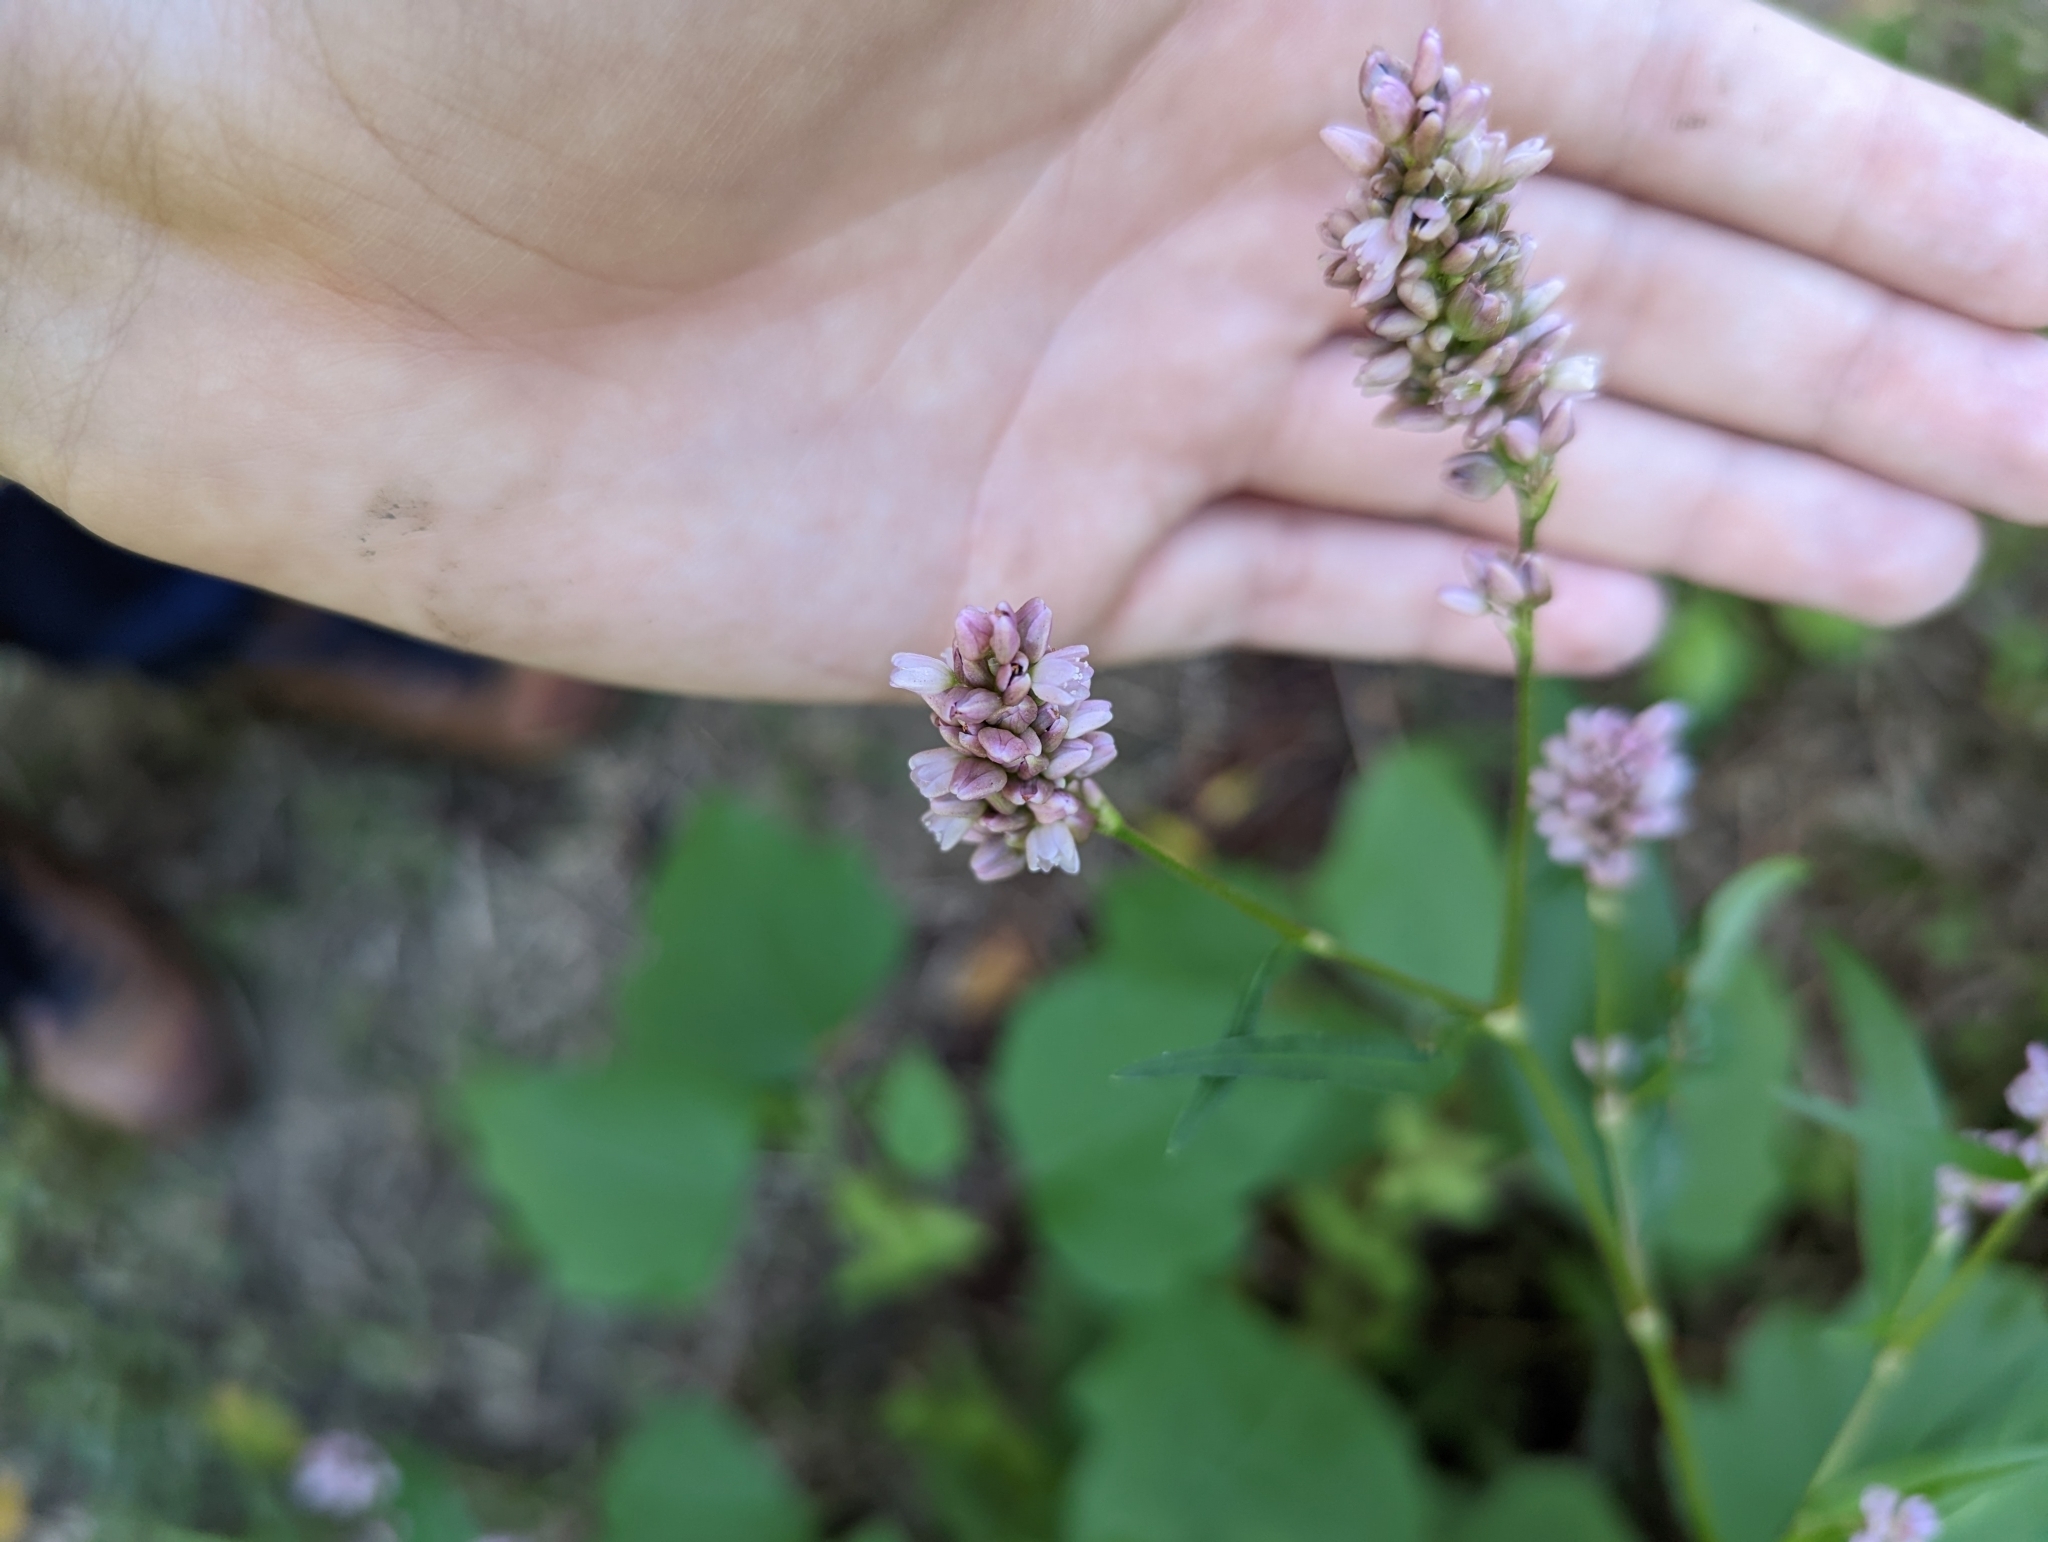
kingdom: Plantae
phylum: Tracheophyta
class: Magnoliopsida
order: Caryophyllales
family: Polygonaceae
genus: Persicaria
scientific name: Persicaria pensylvanica
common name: Pinkweed
